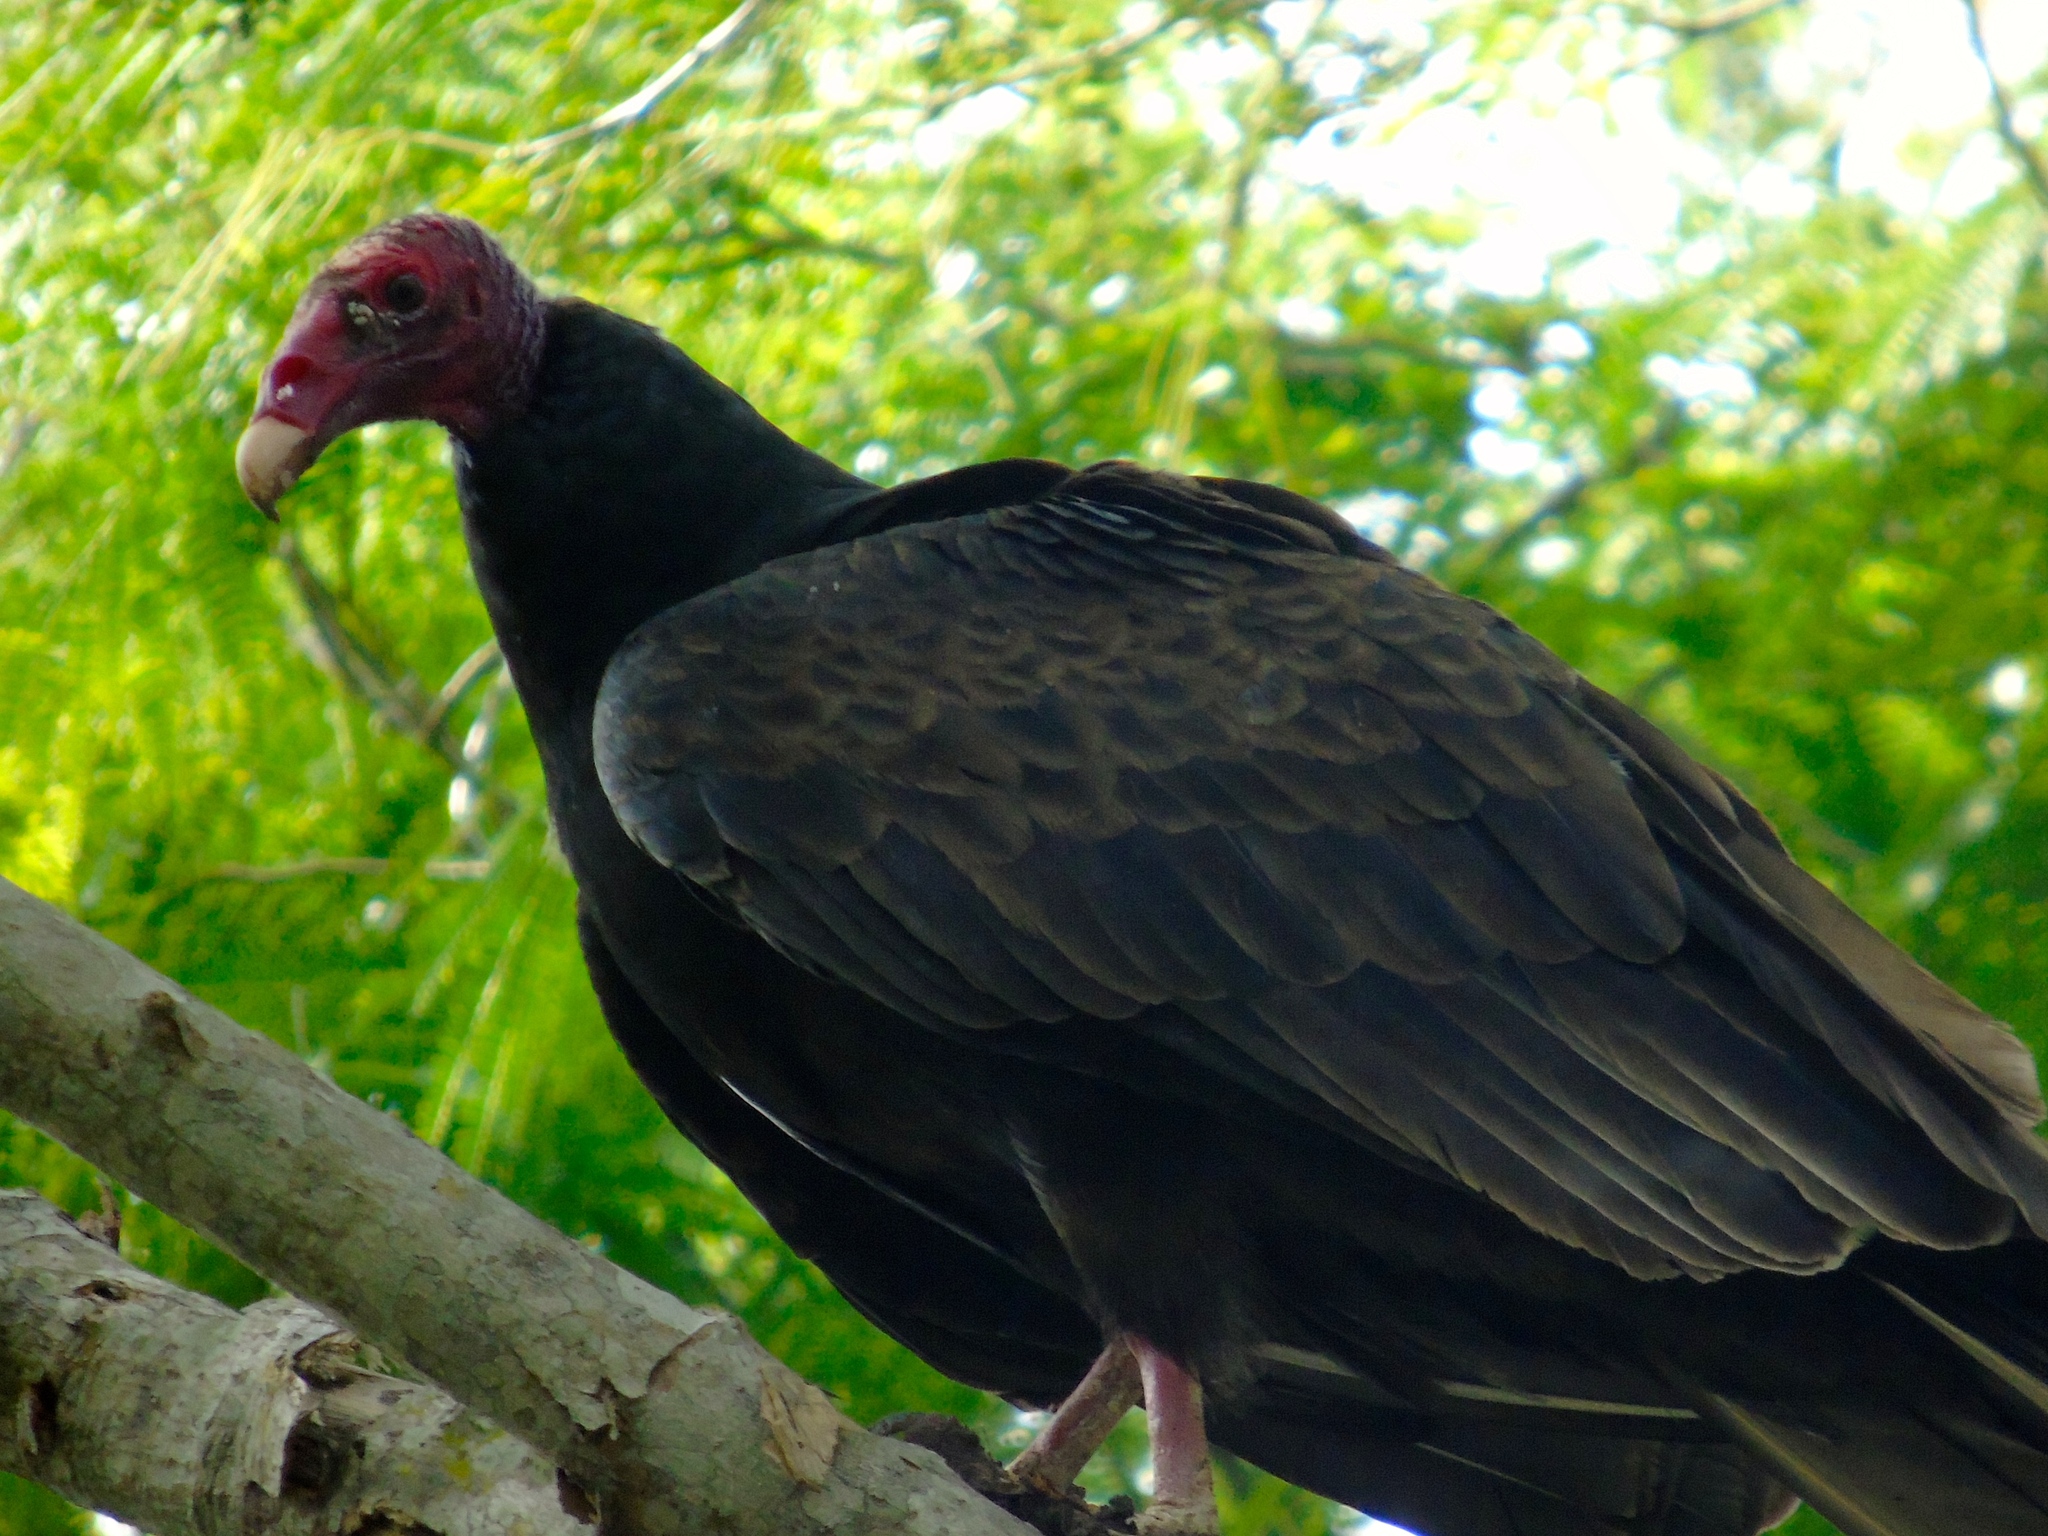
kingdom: Animalia
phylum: Chordata
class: Aves
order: Accipitriformes
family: Cathartidae
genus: Cathartes
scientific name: Cathartes aura
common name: Turkey vulture
